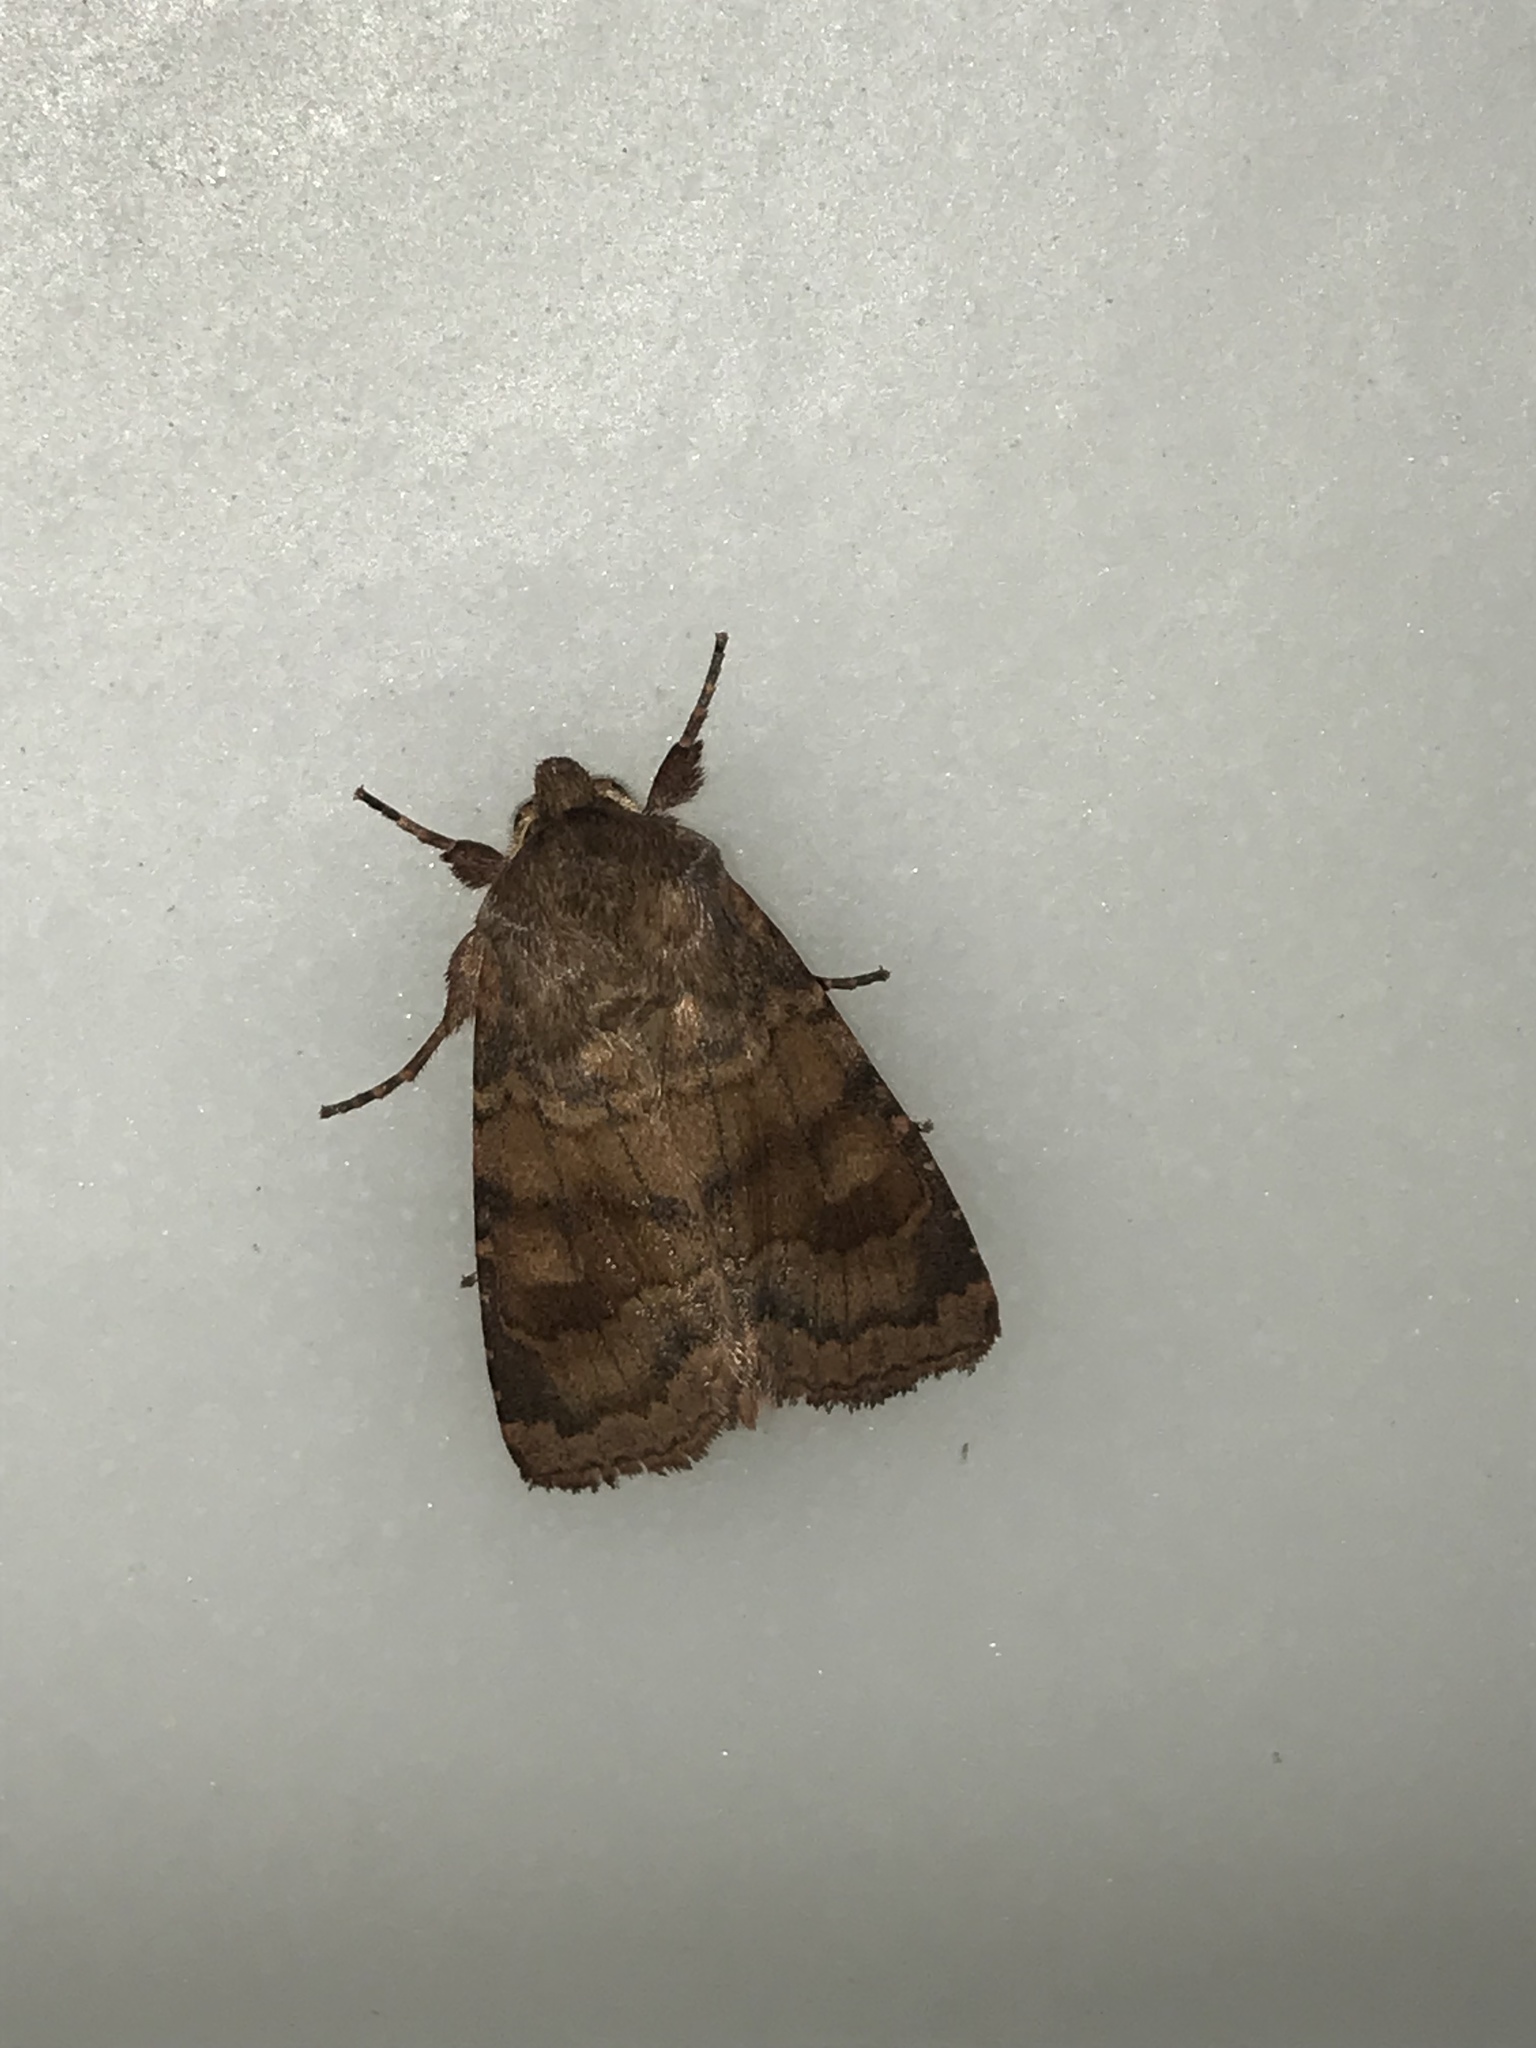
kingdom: Animalia
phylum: Arthropoda
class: Insecta
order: Lepidoptera
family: Noctuidae
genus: Nephelodes
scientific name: Nephelodes minians
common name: Bronzed cutworm
